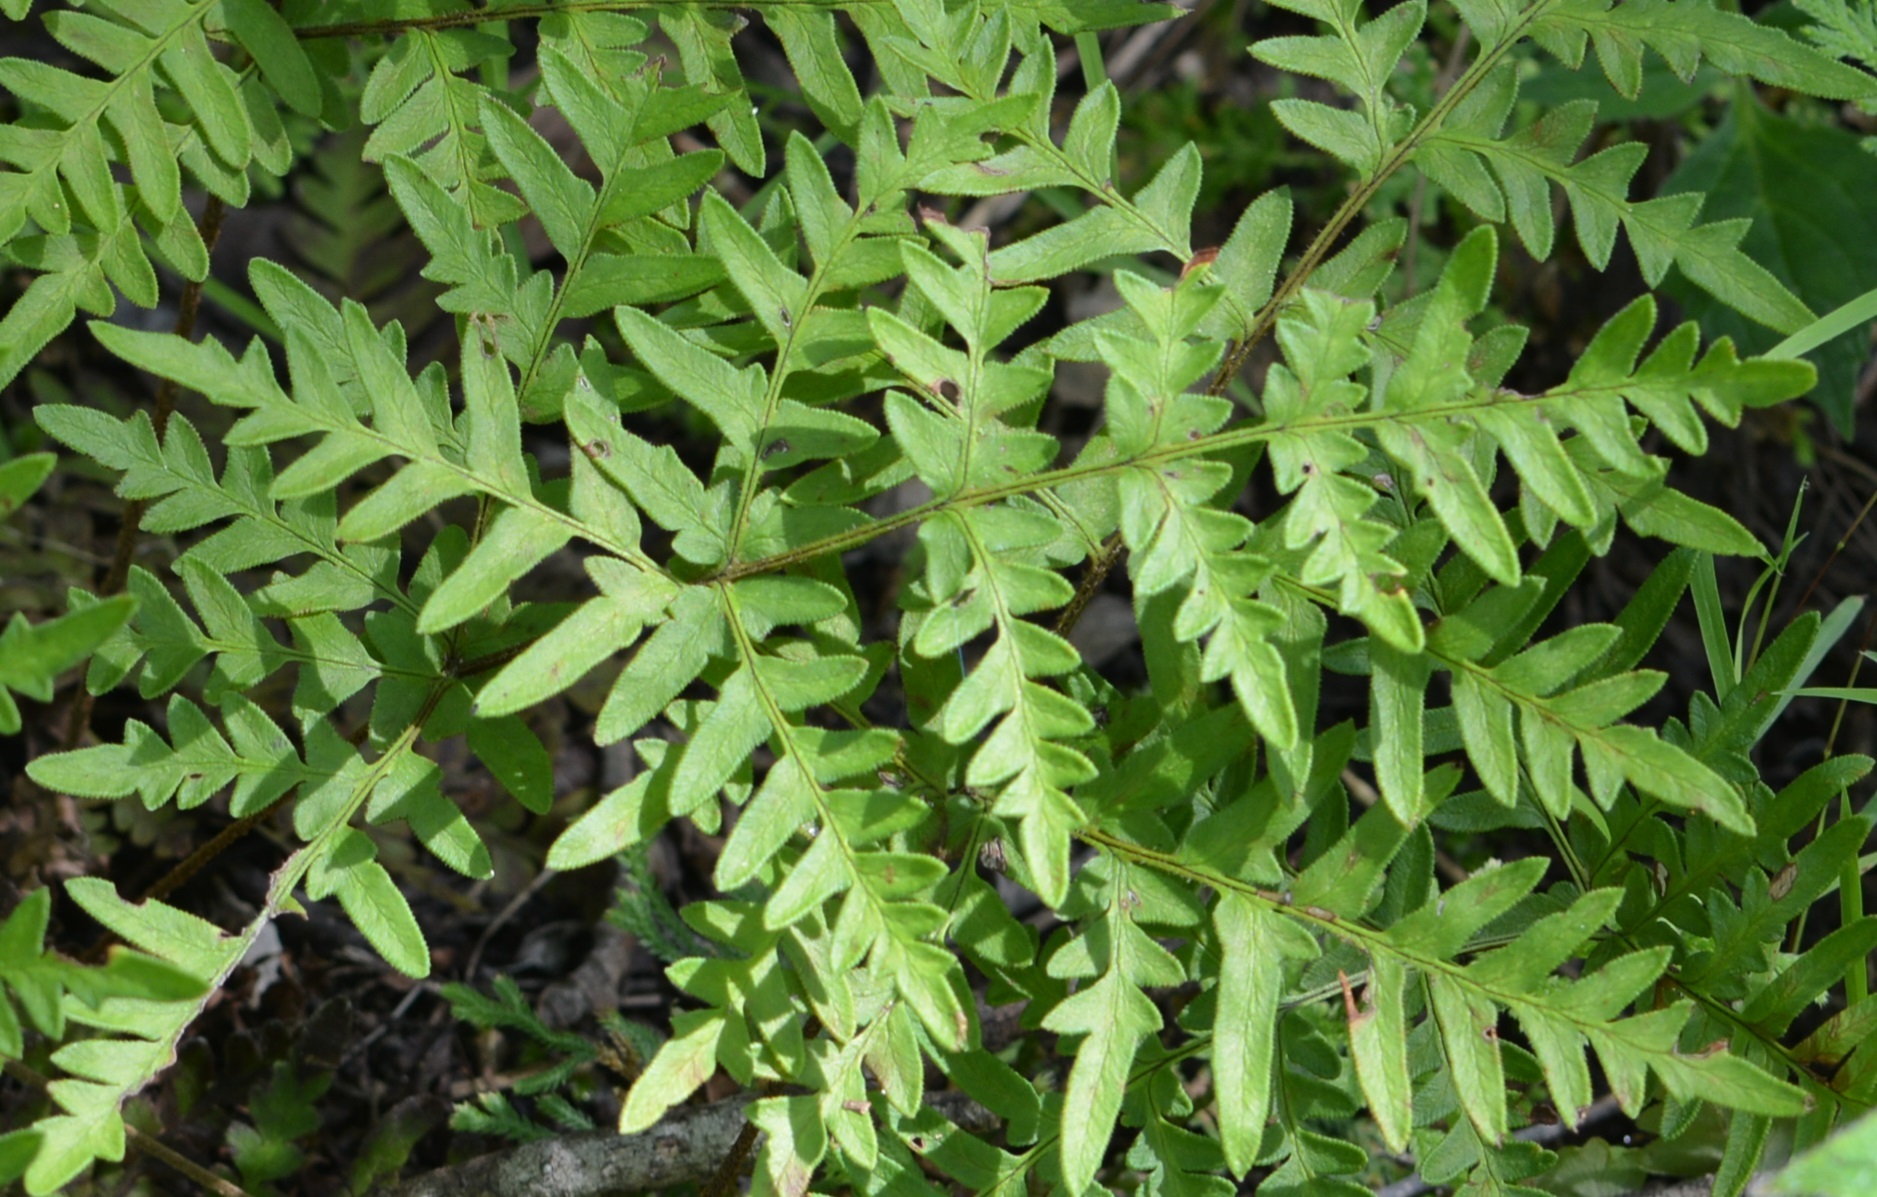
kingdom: Plantae
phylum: Tracheophyta
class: Polypodiopsida
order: Polypodiales
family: Pteridaceae
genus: Cheiloplecton
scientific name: Cheiloplecton rigidum
